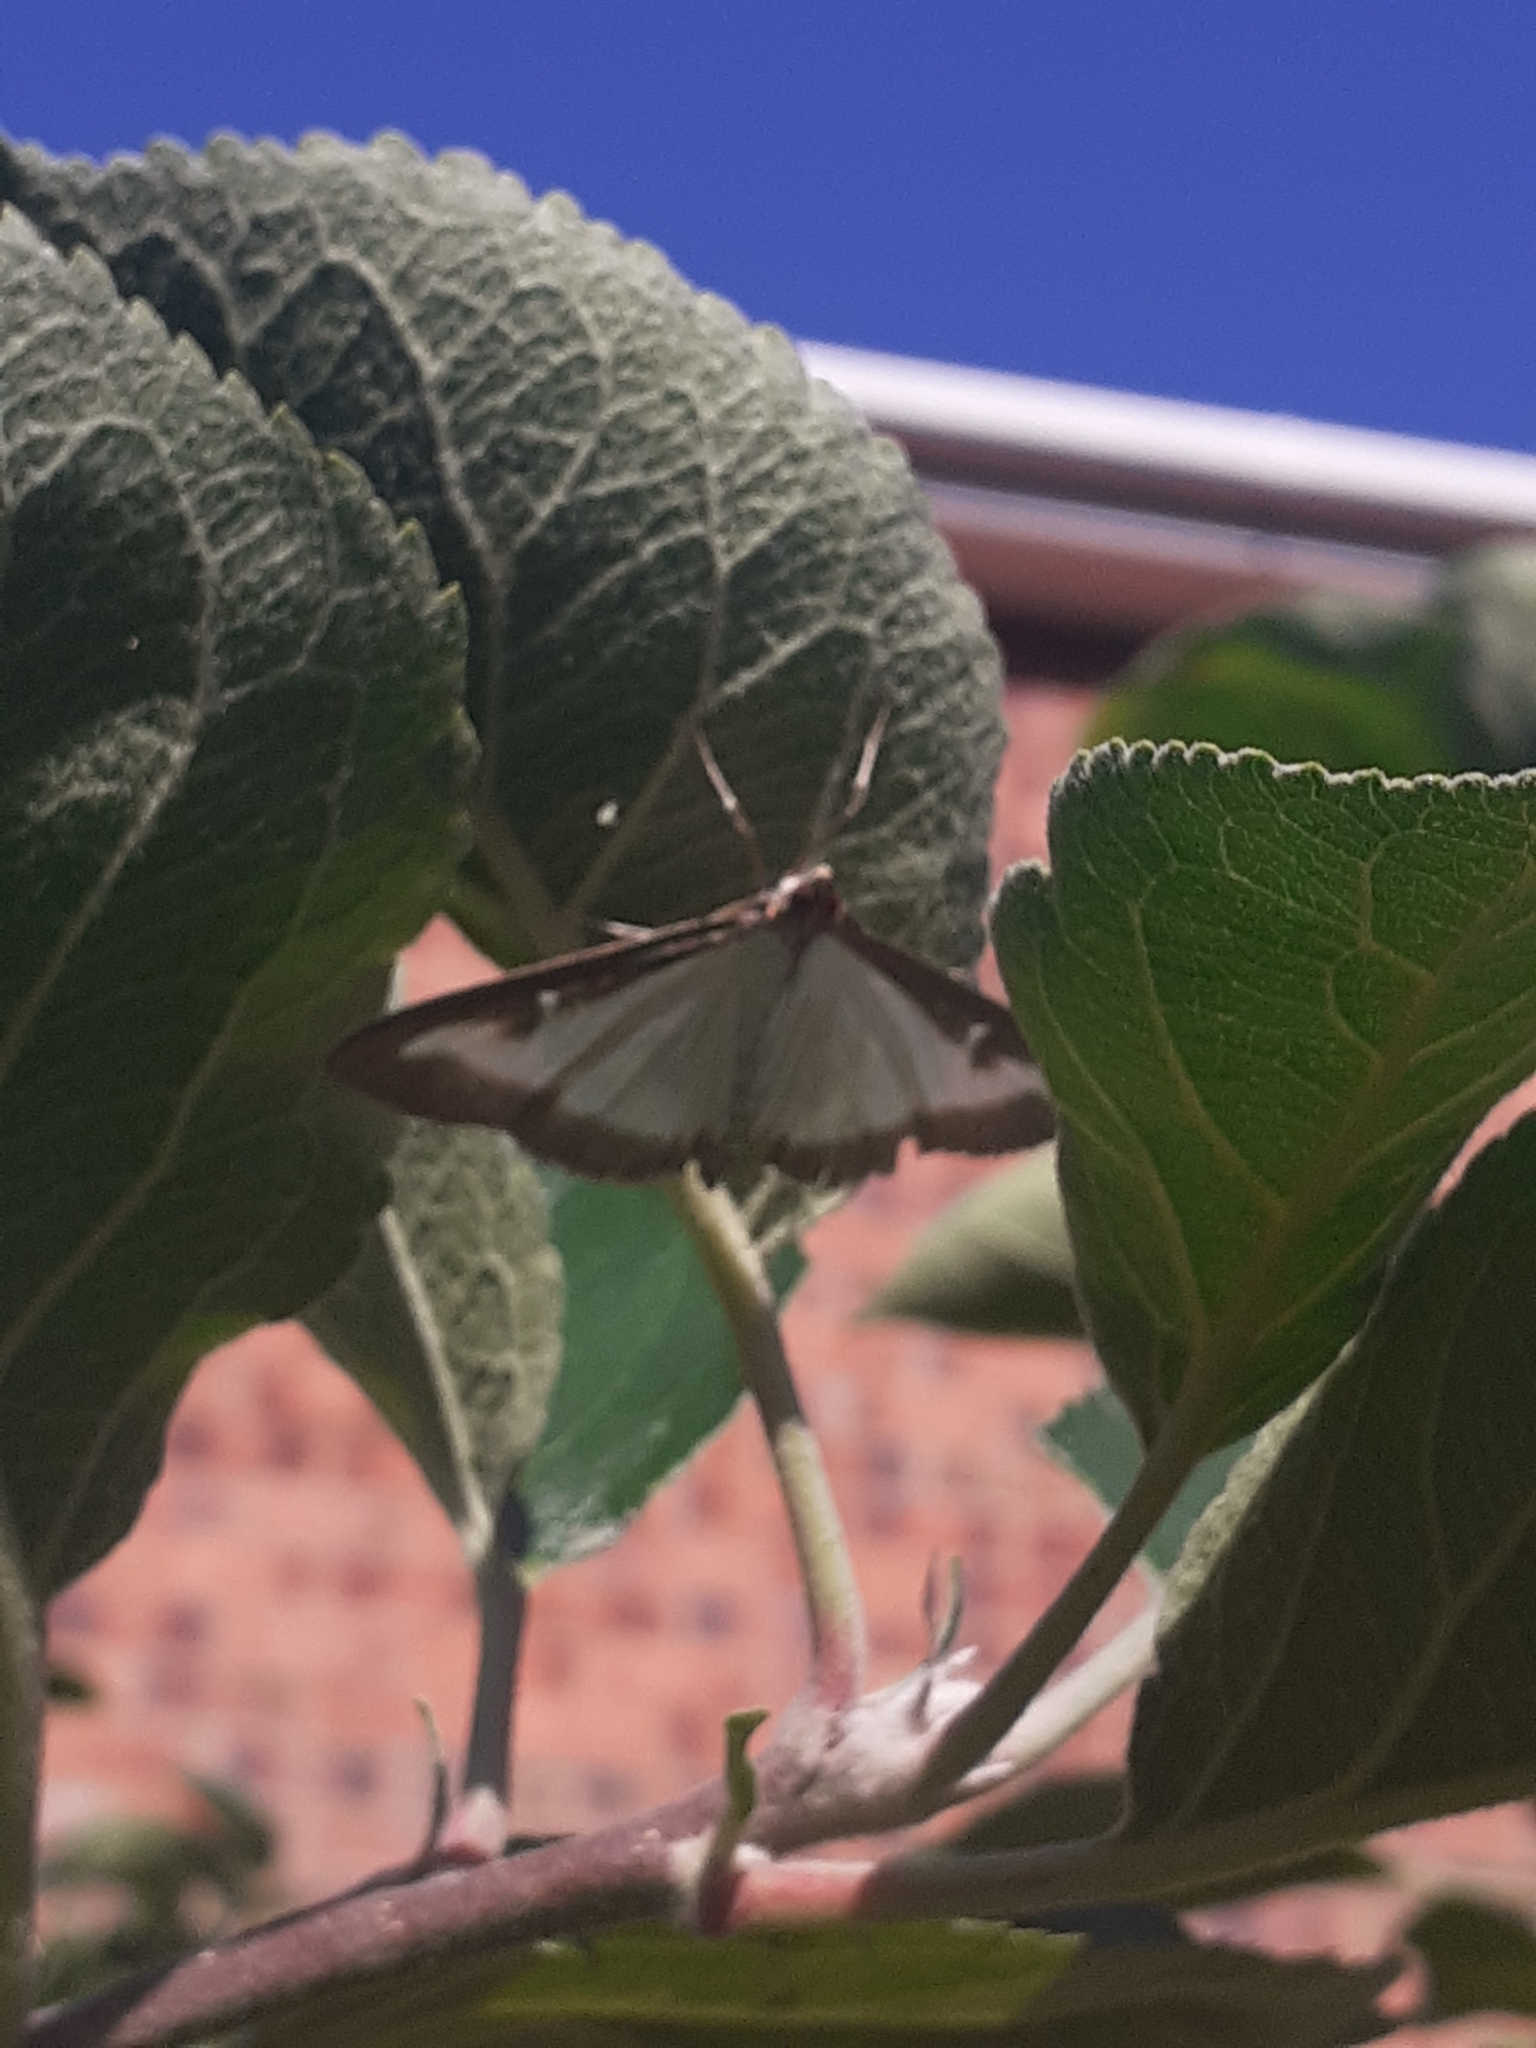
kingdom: Animalia
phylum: Arthropoda
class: Insecta
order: Lepidoptera
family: Crambidae
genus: Cydalima
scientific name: Cydalima perspectalis
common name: Box tree moth
